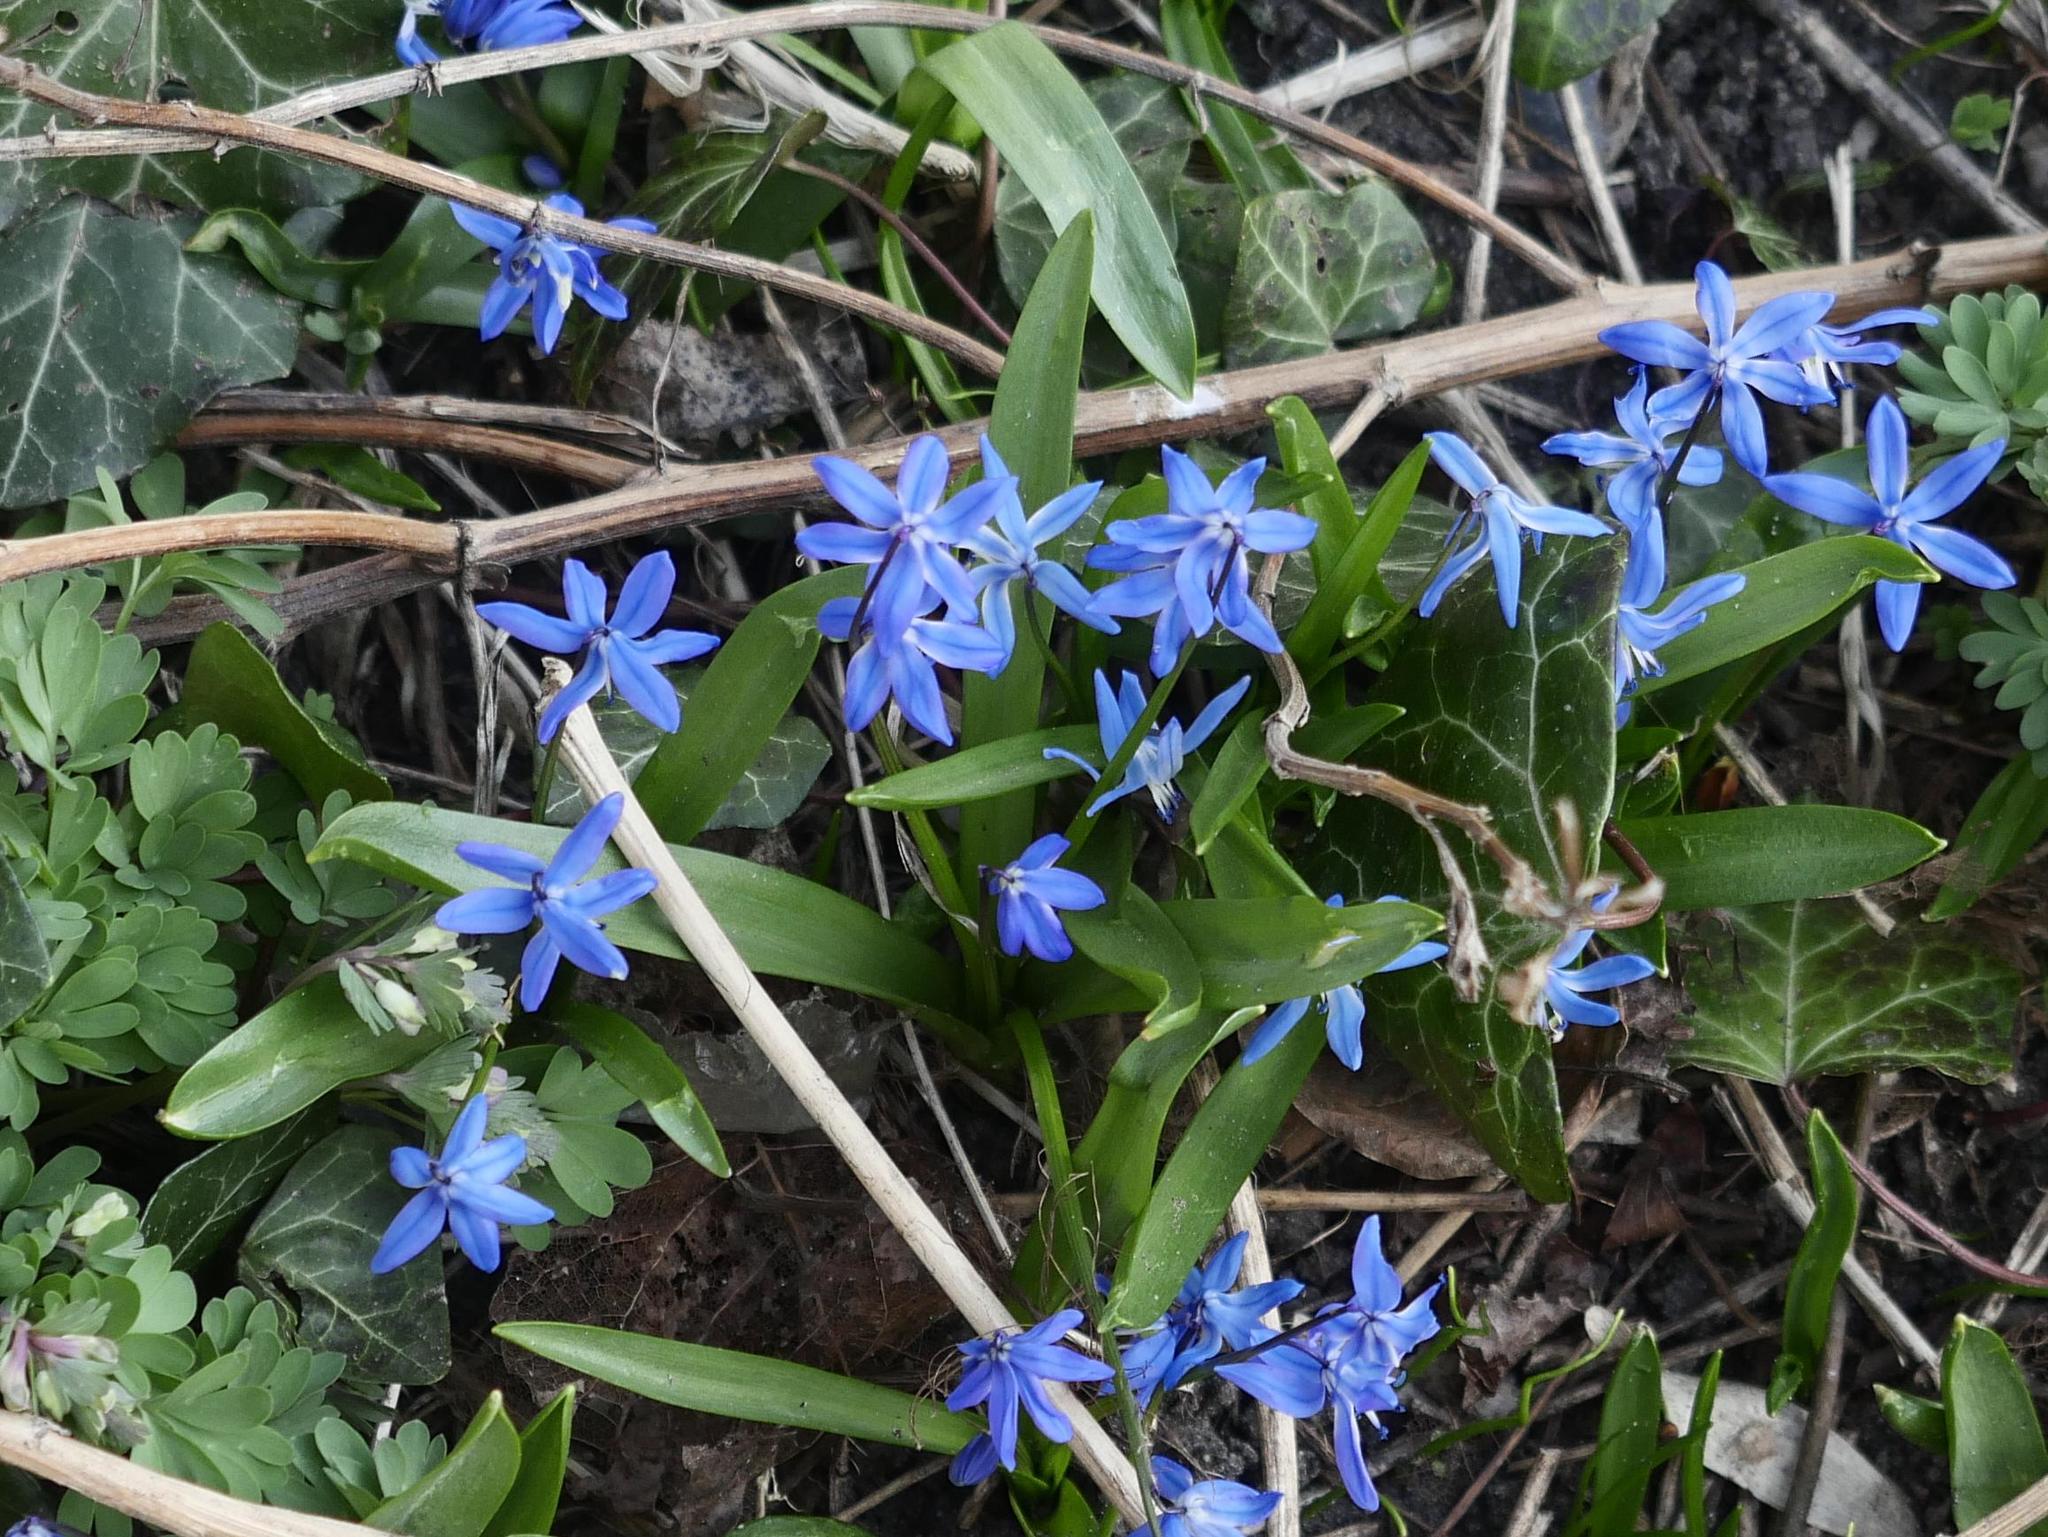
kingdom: Plantae
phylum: Tracheophyta
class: Liliopsida
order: Asparagales
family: Asparagaceae
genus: Scilla
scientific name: Scilla siberica
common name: Siberian squill
